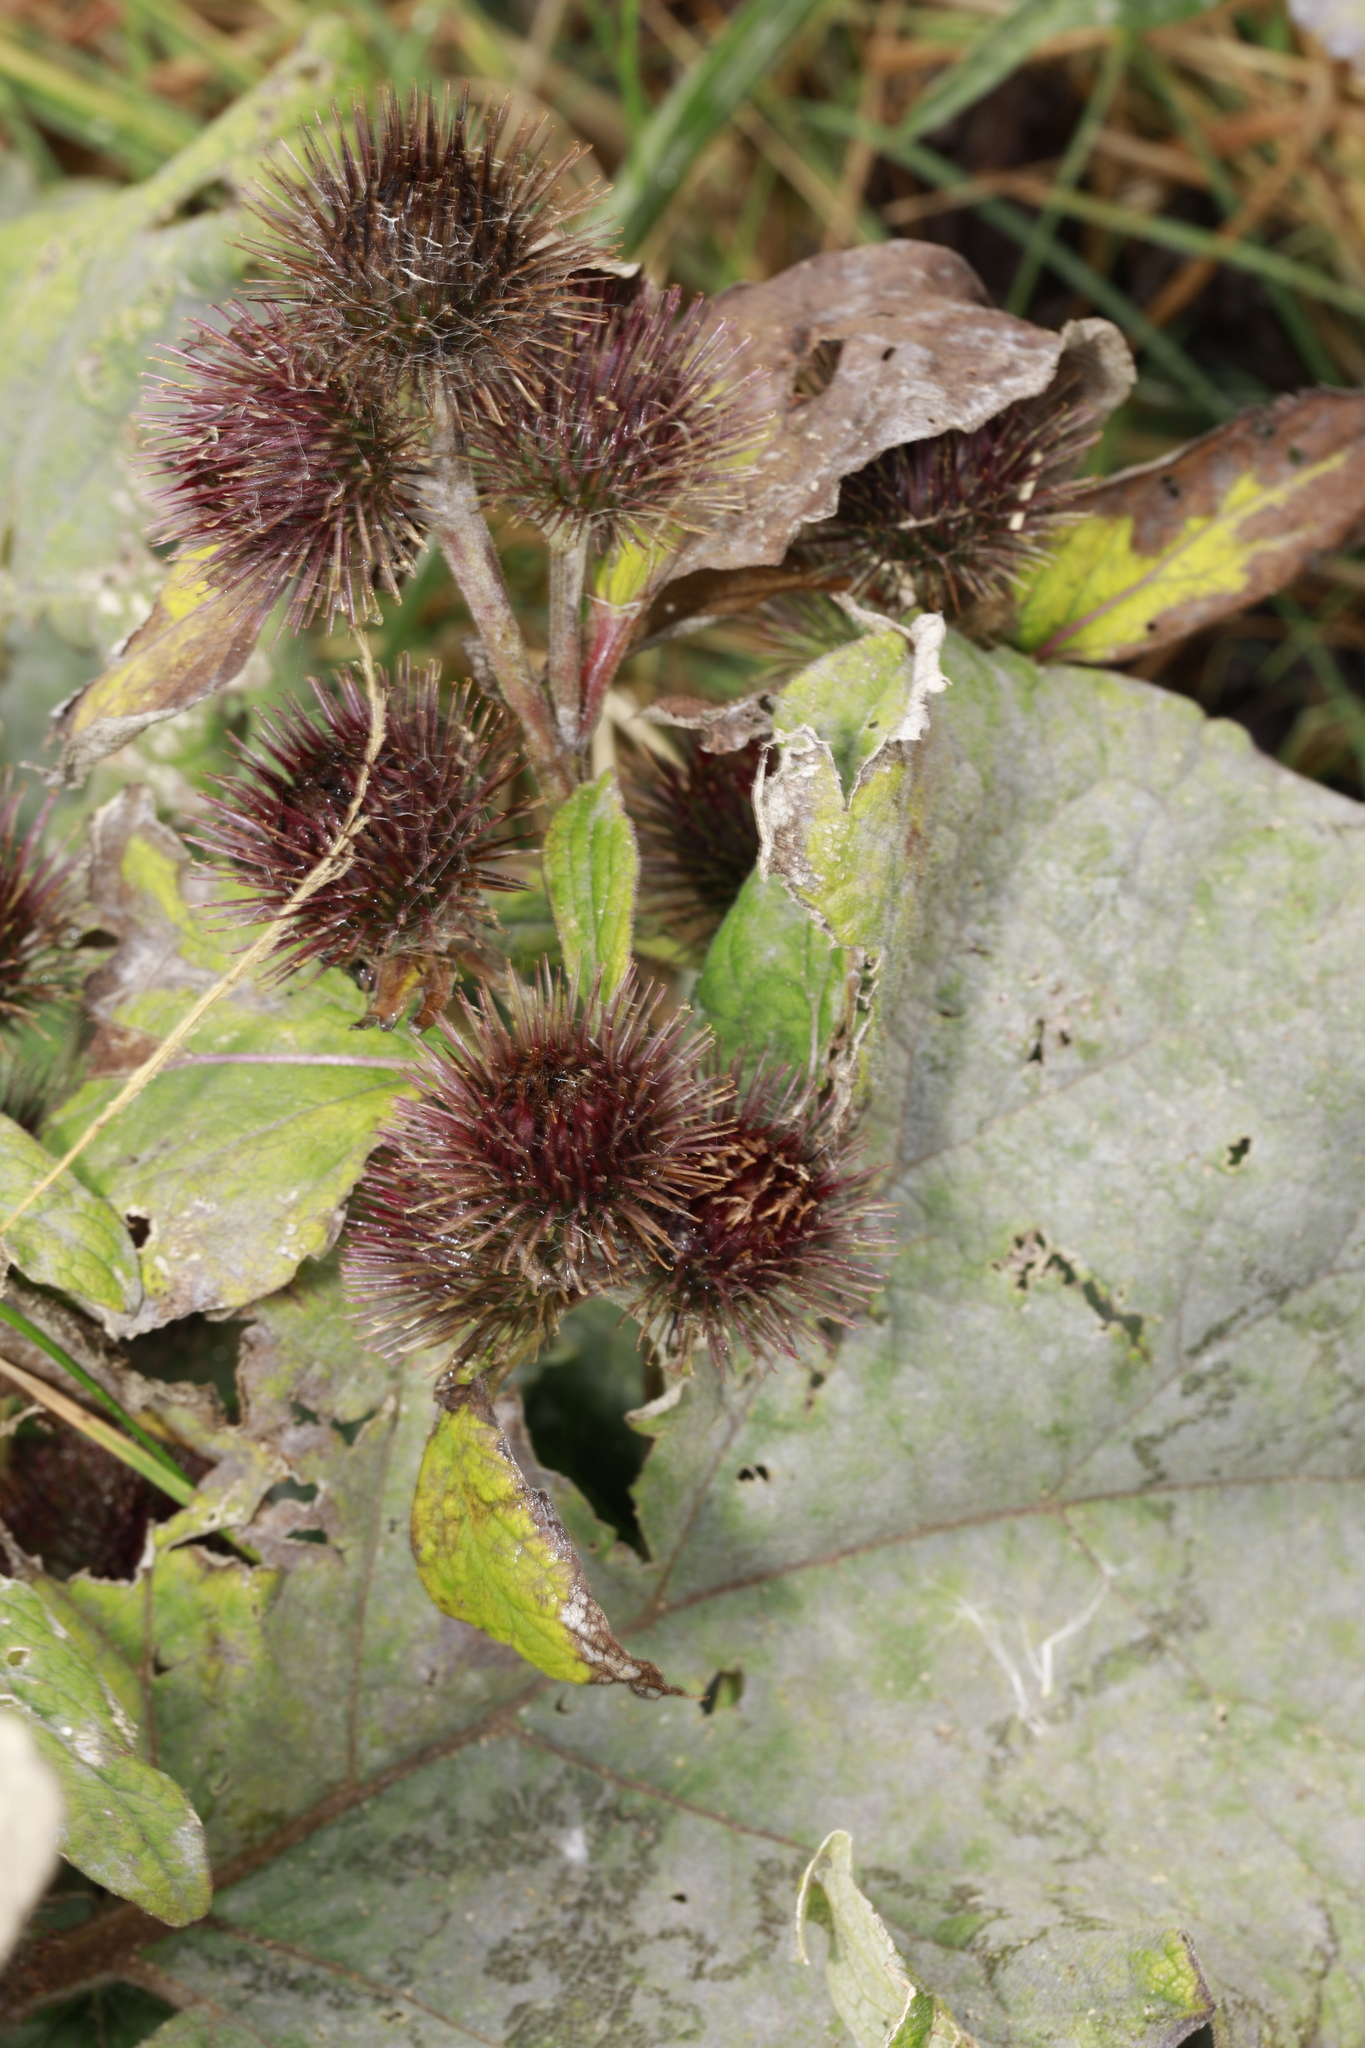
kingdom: Plantae
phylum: Tracheophyta
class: Magnoliopsida
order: Asterales
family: Asteraceae
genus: Arctium
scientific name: Arctium minus
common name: Lesser burdock
